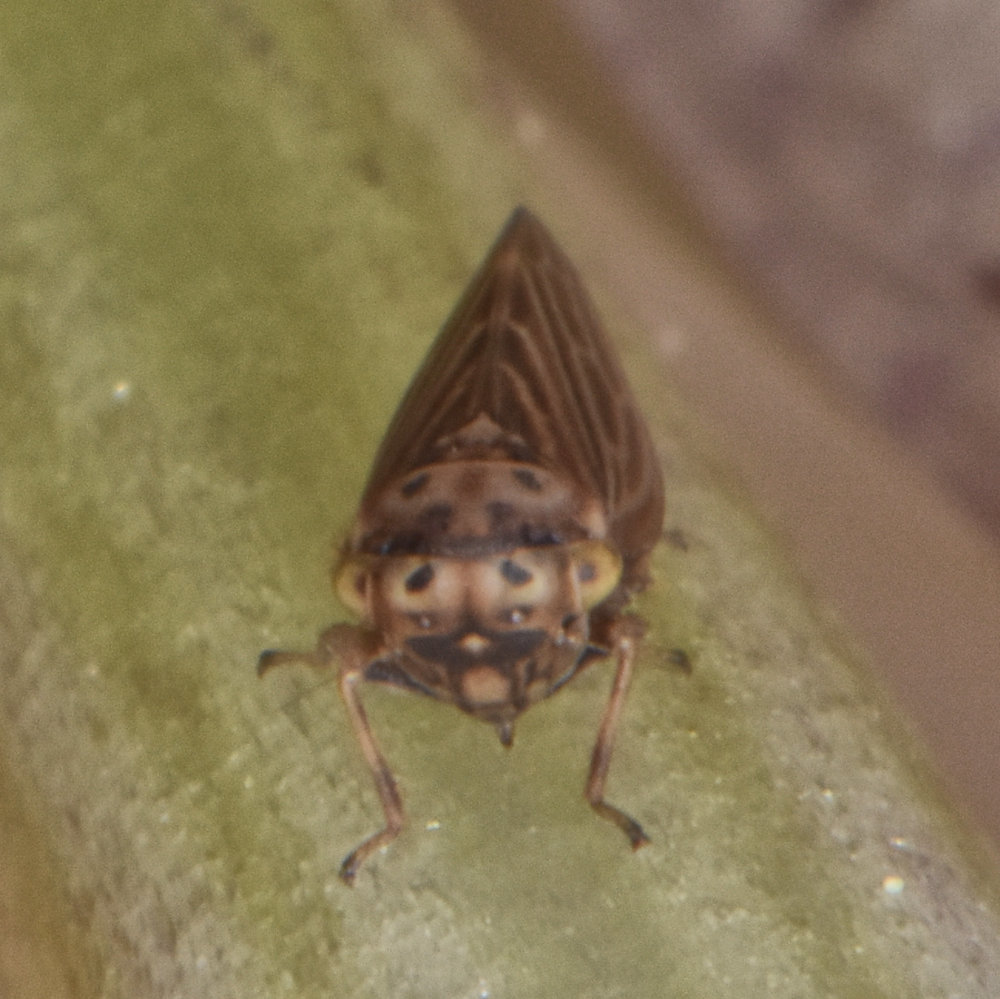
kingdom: Animalia
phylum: Arthropoda
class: Insecta
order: Hemiptera
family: Cicadellidae
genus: Agalliota
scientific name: Agalliota quadripunctata
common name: The four-spotted clover leafhopper
